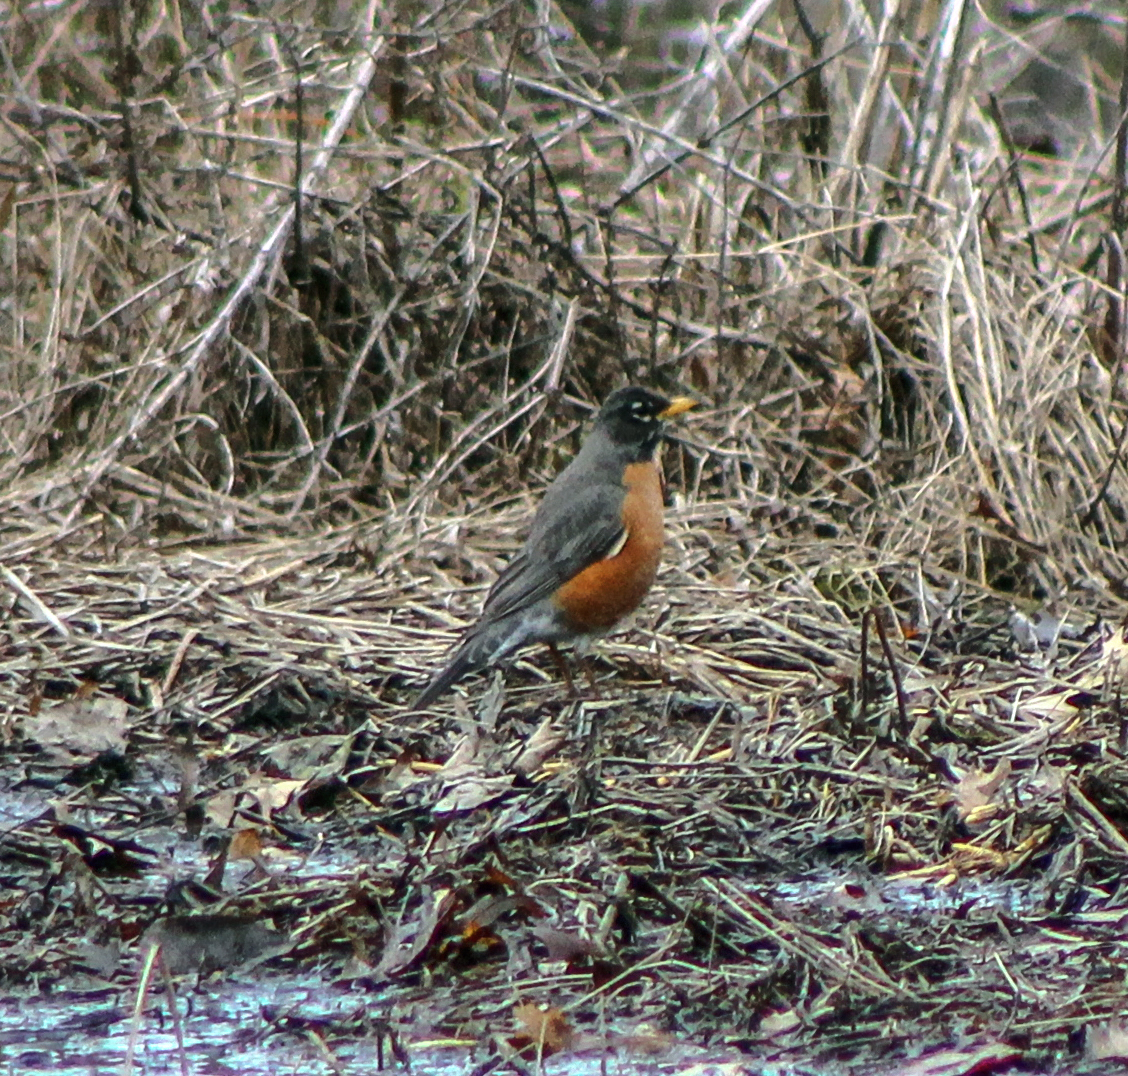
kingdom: Animalia
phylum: Chordata
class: Aves
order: Passeriformes
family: Turdidae
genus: Turdus
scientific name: Turdus migratorius
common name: American robin
